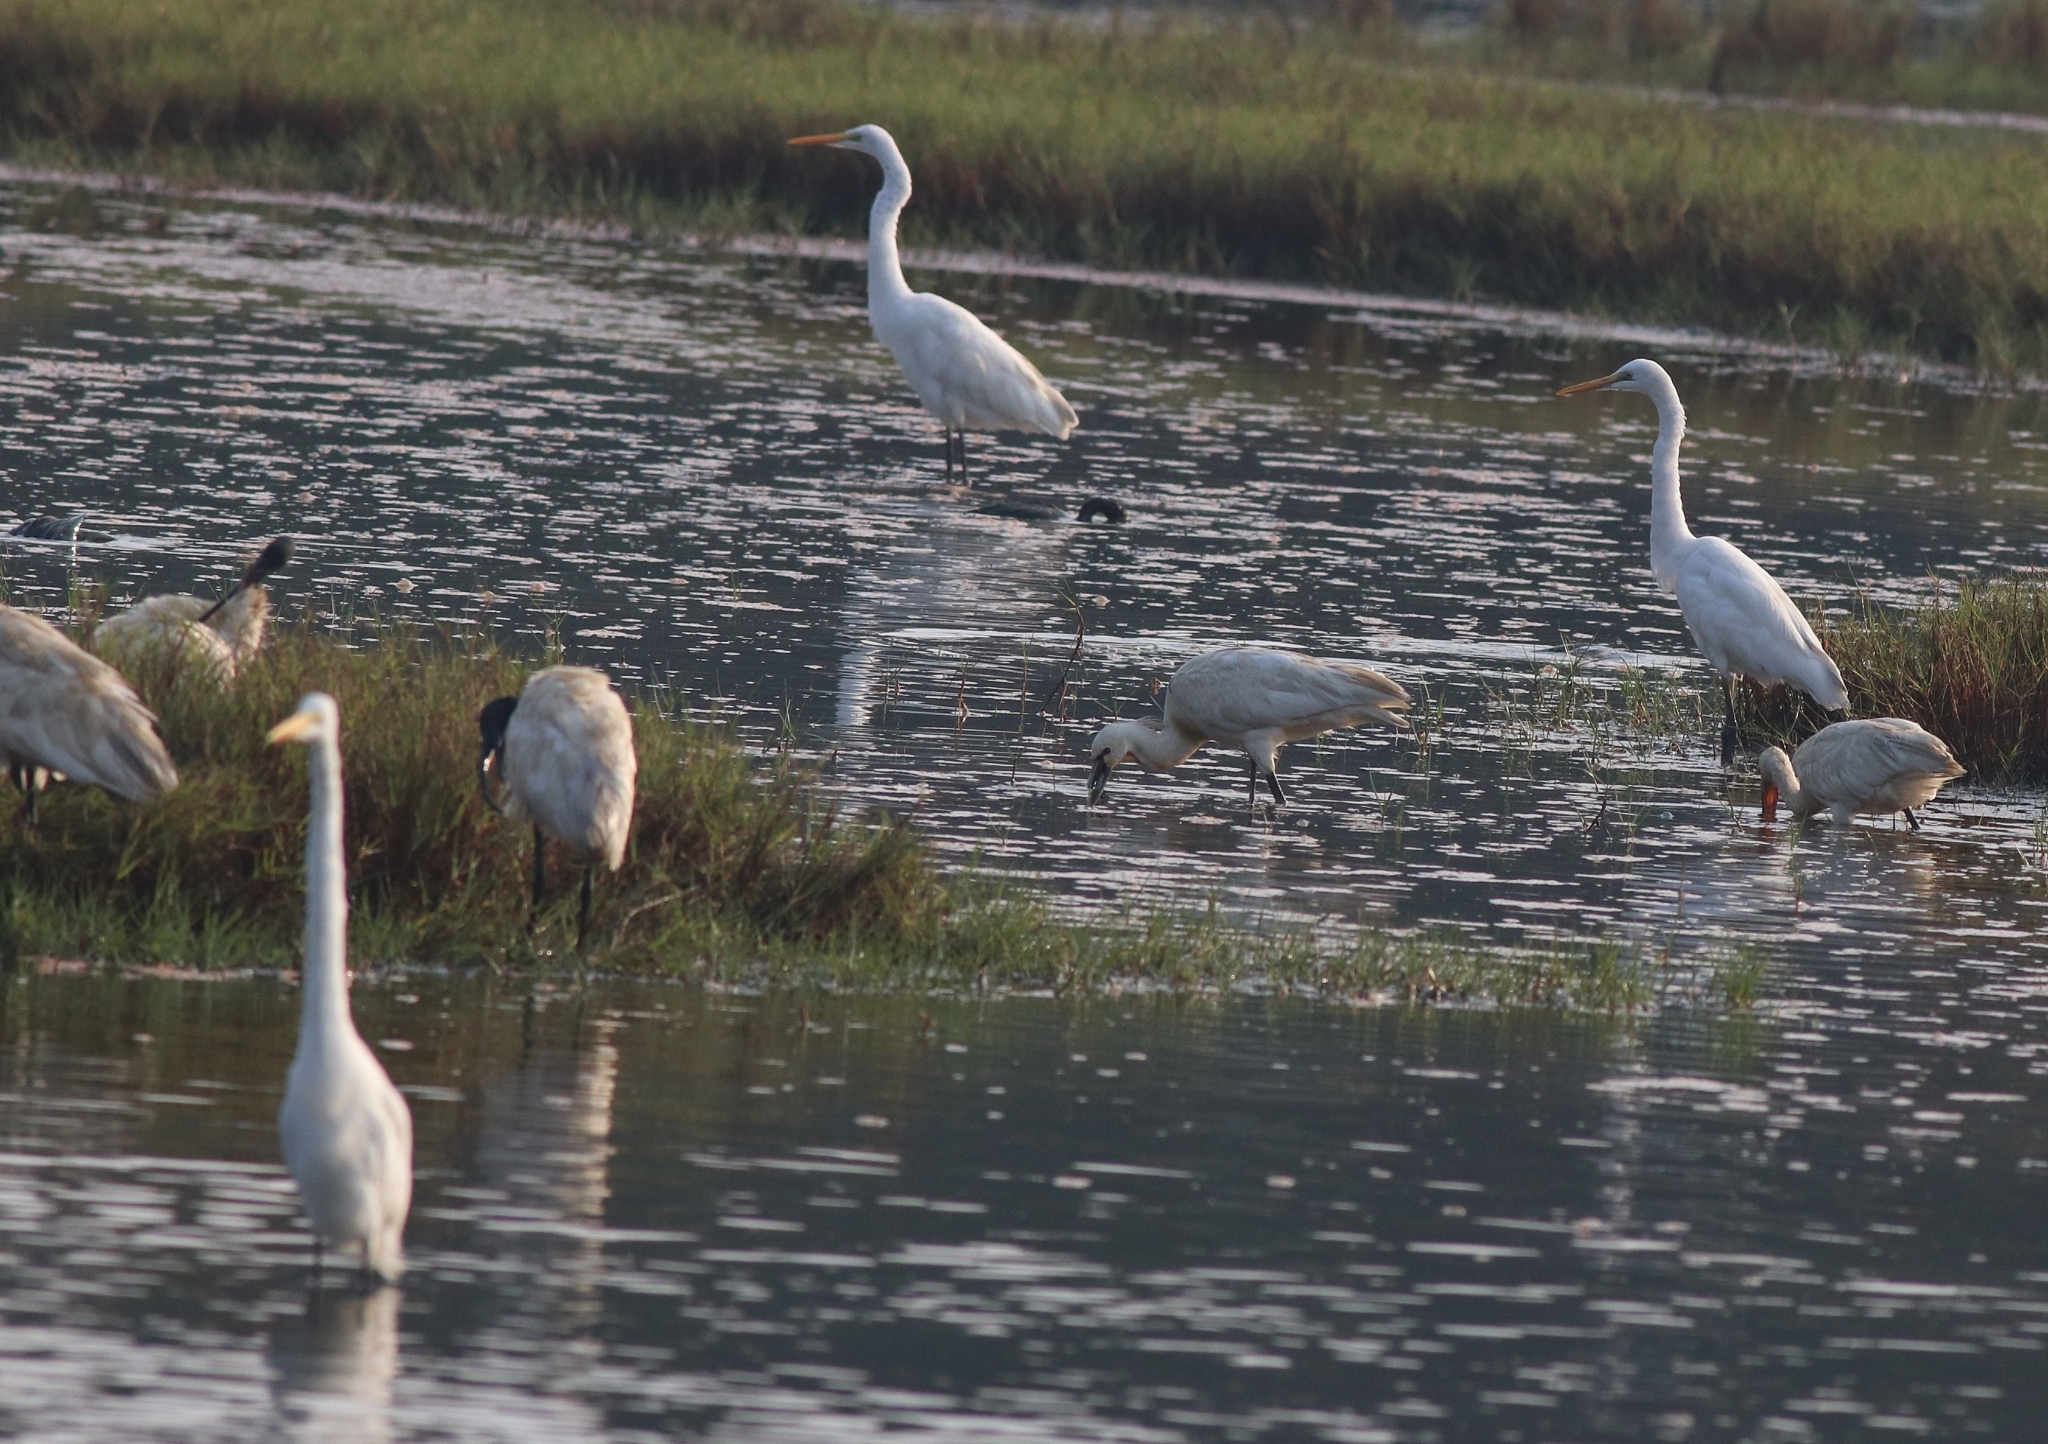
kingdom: Animalia
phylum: Chordata
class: Aves
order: Pelecaniformes
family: Threskiornithidae
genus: Threskiornis
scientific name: Threskiornis melanocephalus
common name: Black-headed ibis
